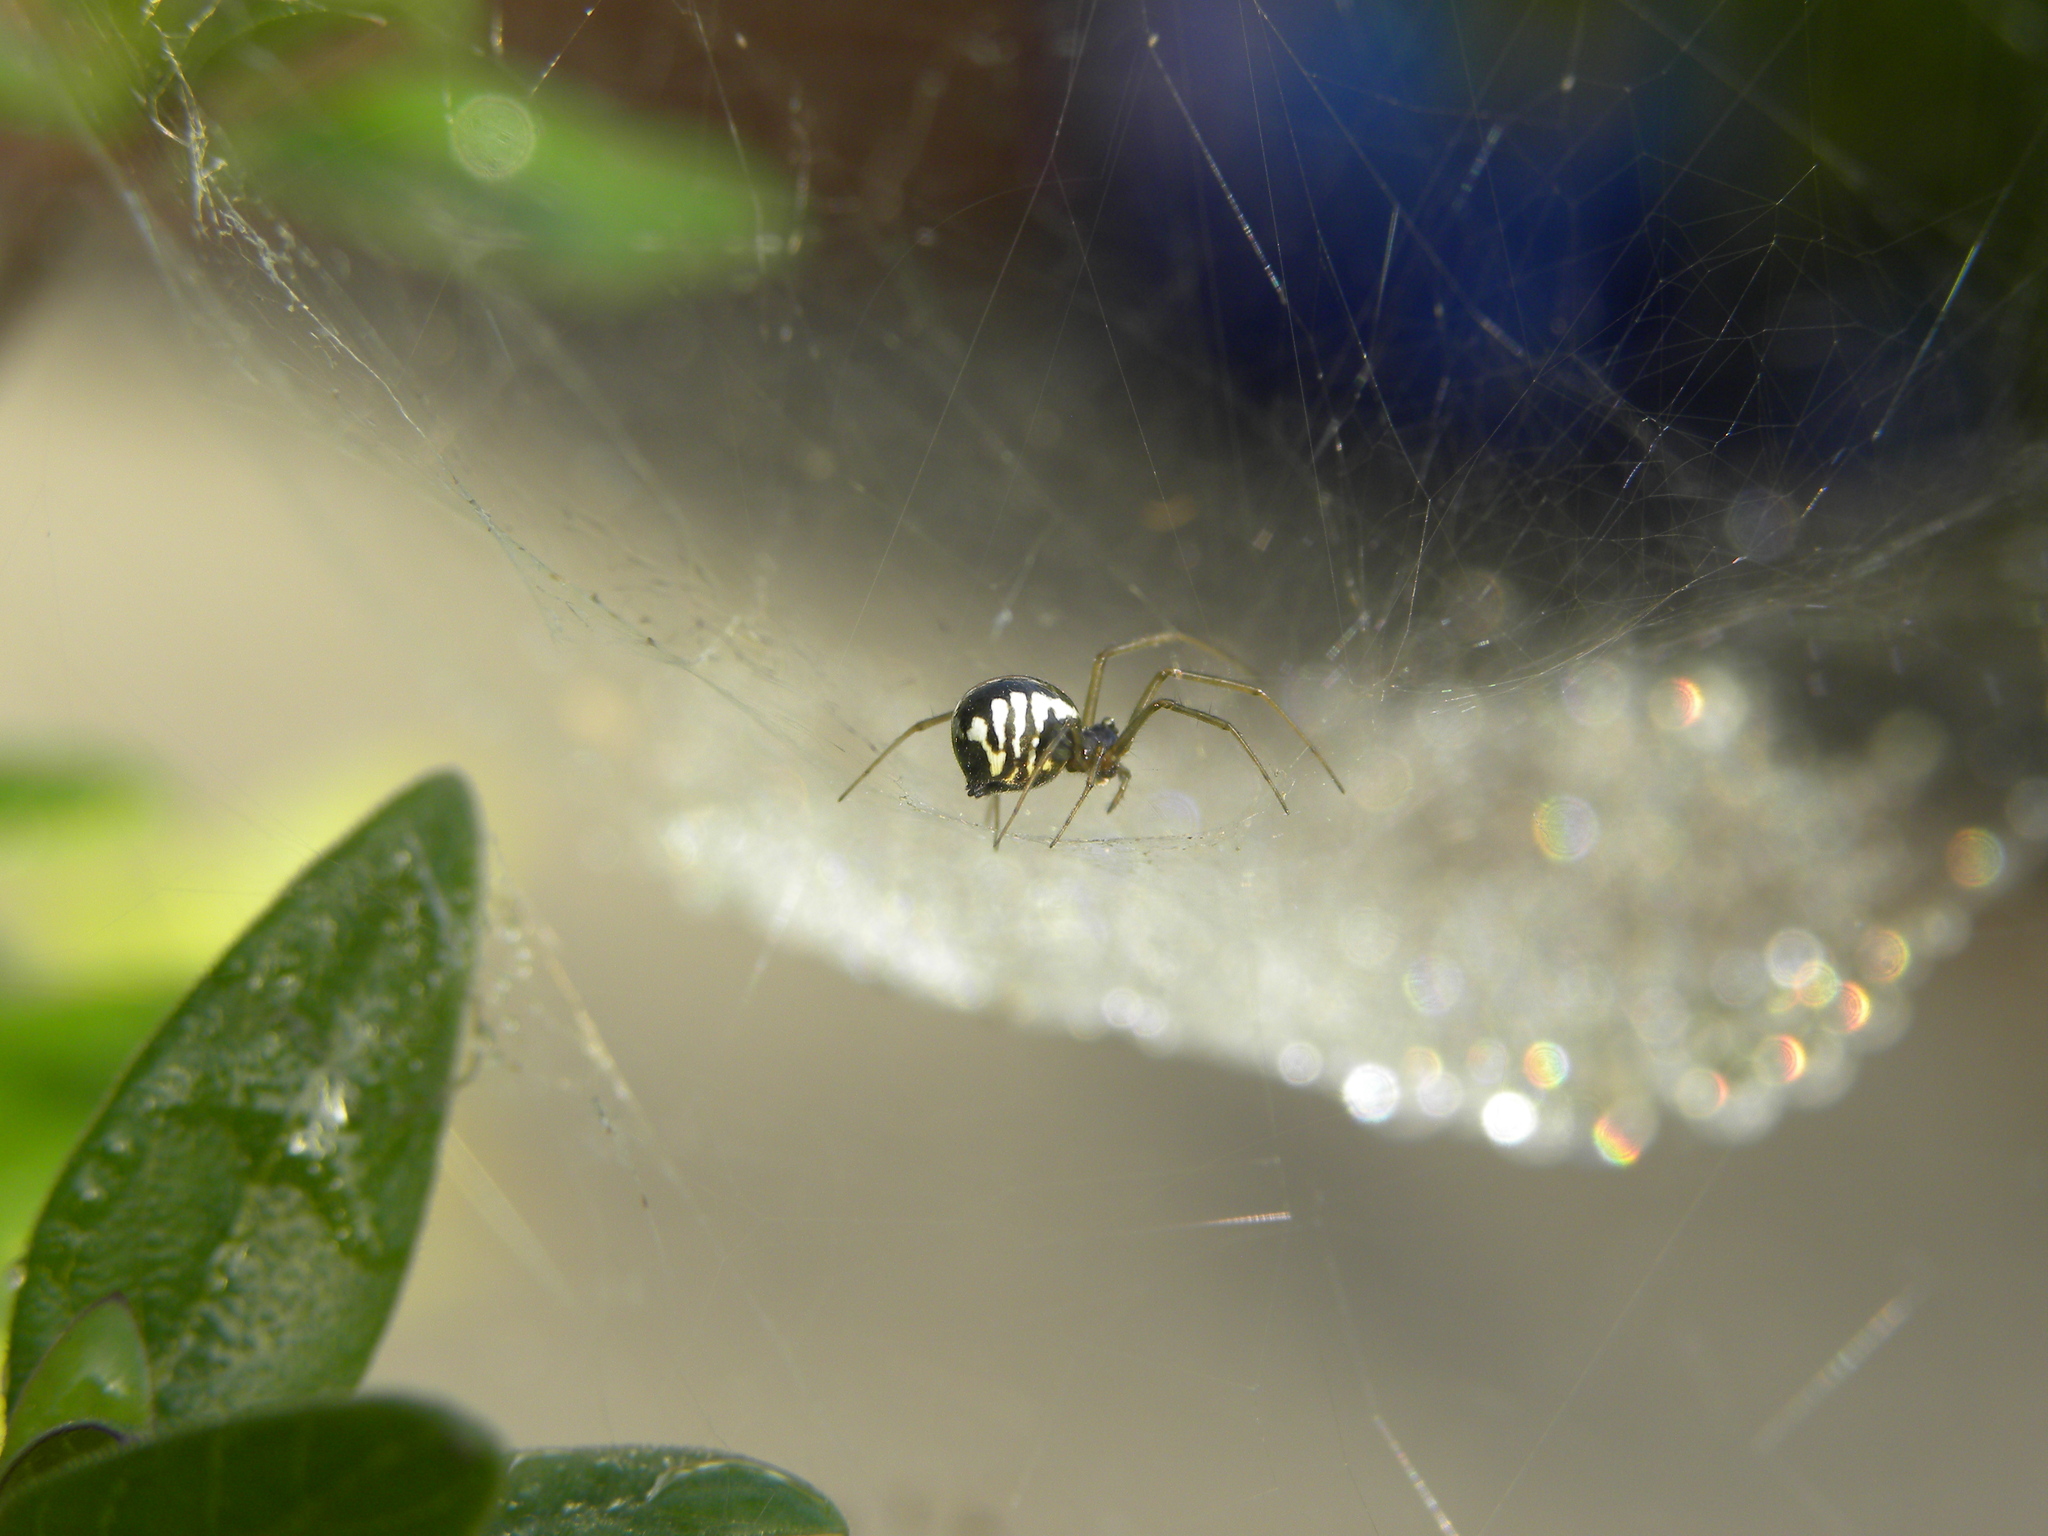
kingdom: Animalia
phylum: Arthropoda
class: Arachnida
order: Araneae
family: Linyphiidae
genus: Frontinella
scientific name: Frontinella pyramitela
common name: Bowl-and-doily spider
